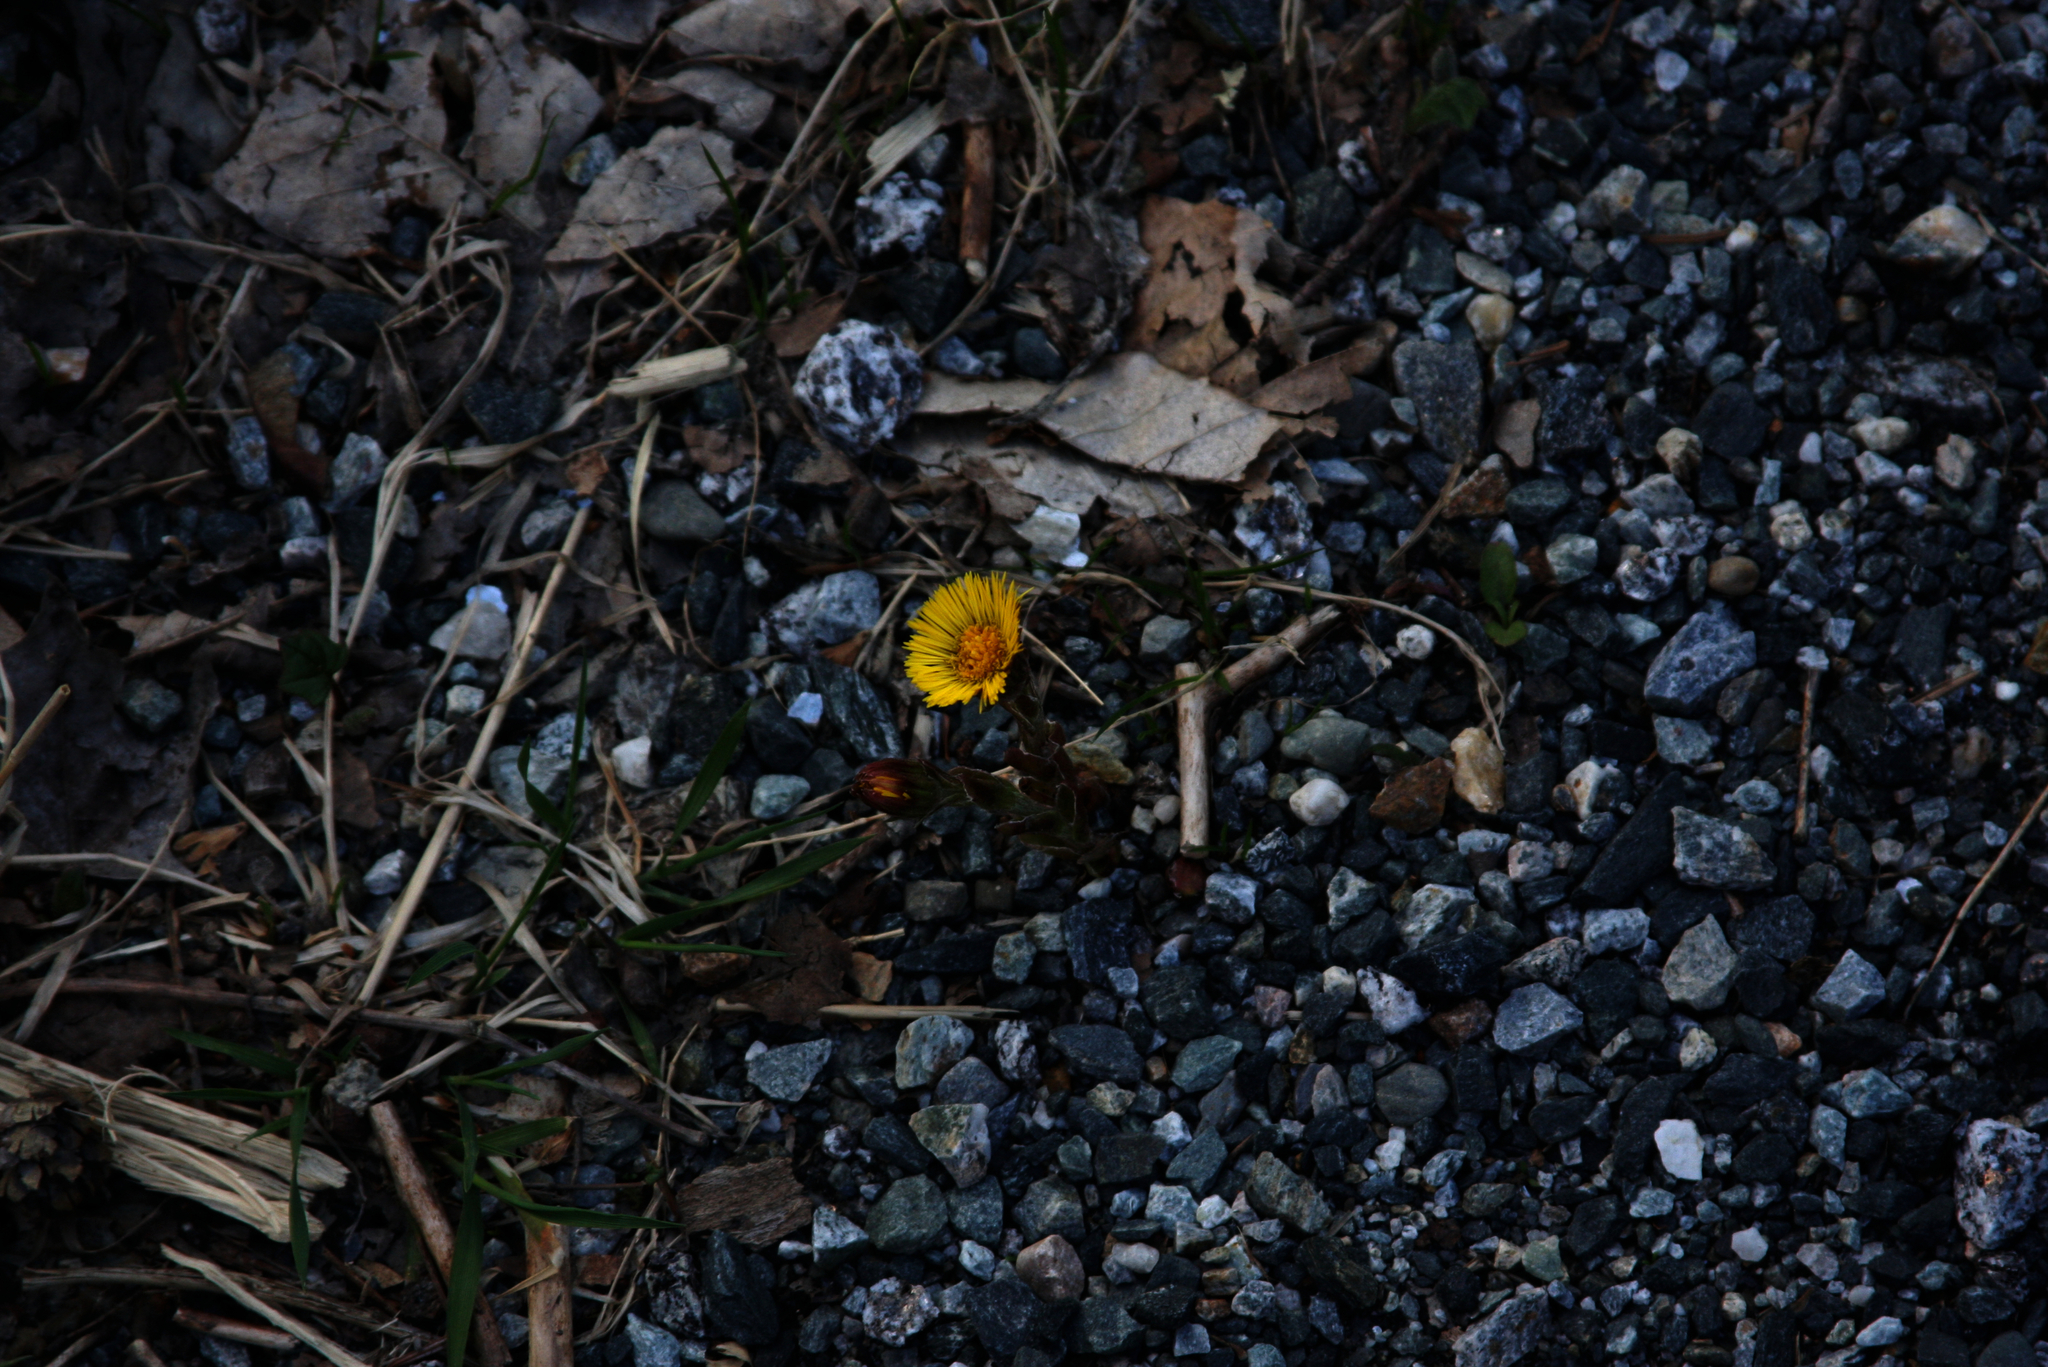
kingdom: Plantae
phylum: Tracheophyta
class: Magnoliopsida
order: Asterales
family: Asteraceae
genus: Tussilago
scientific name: Tussilago farfara
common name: Coltsfoot
